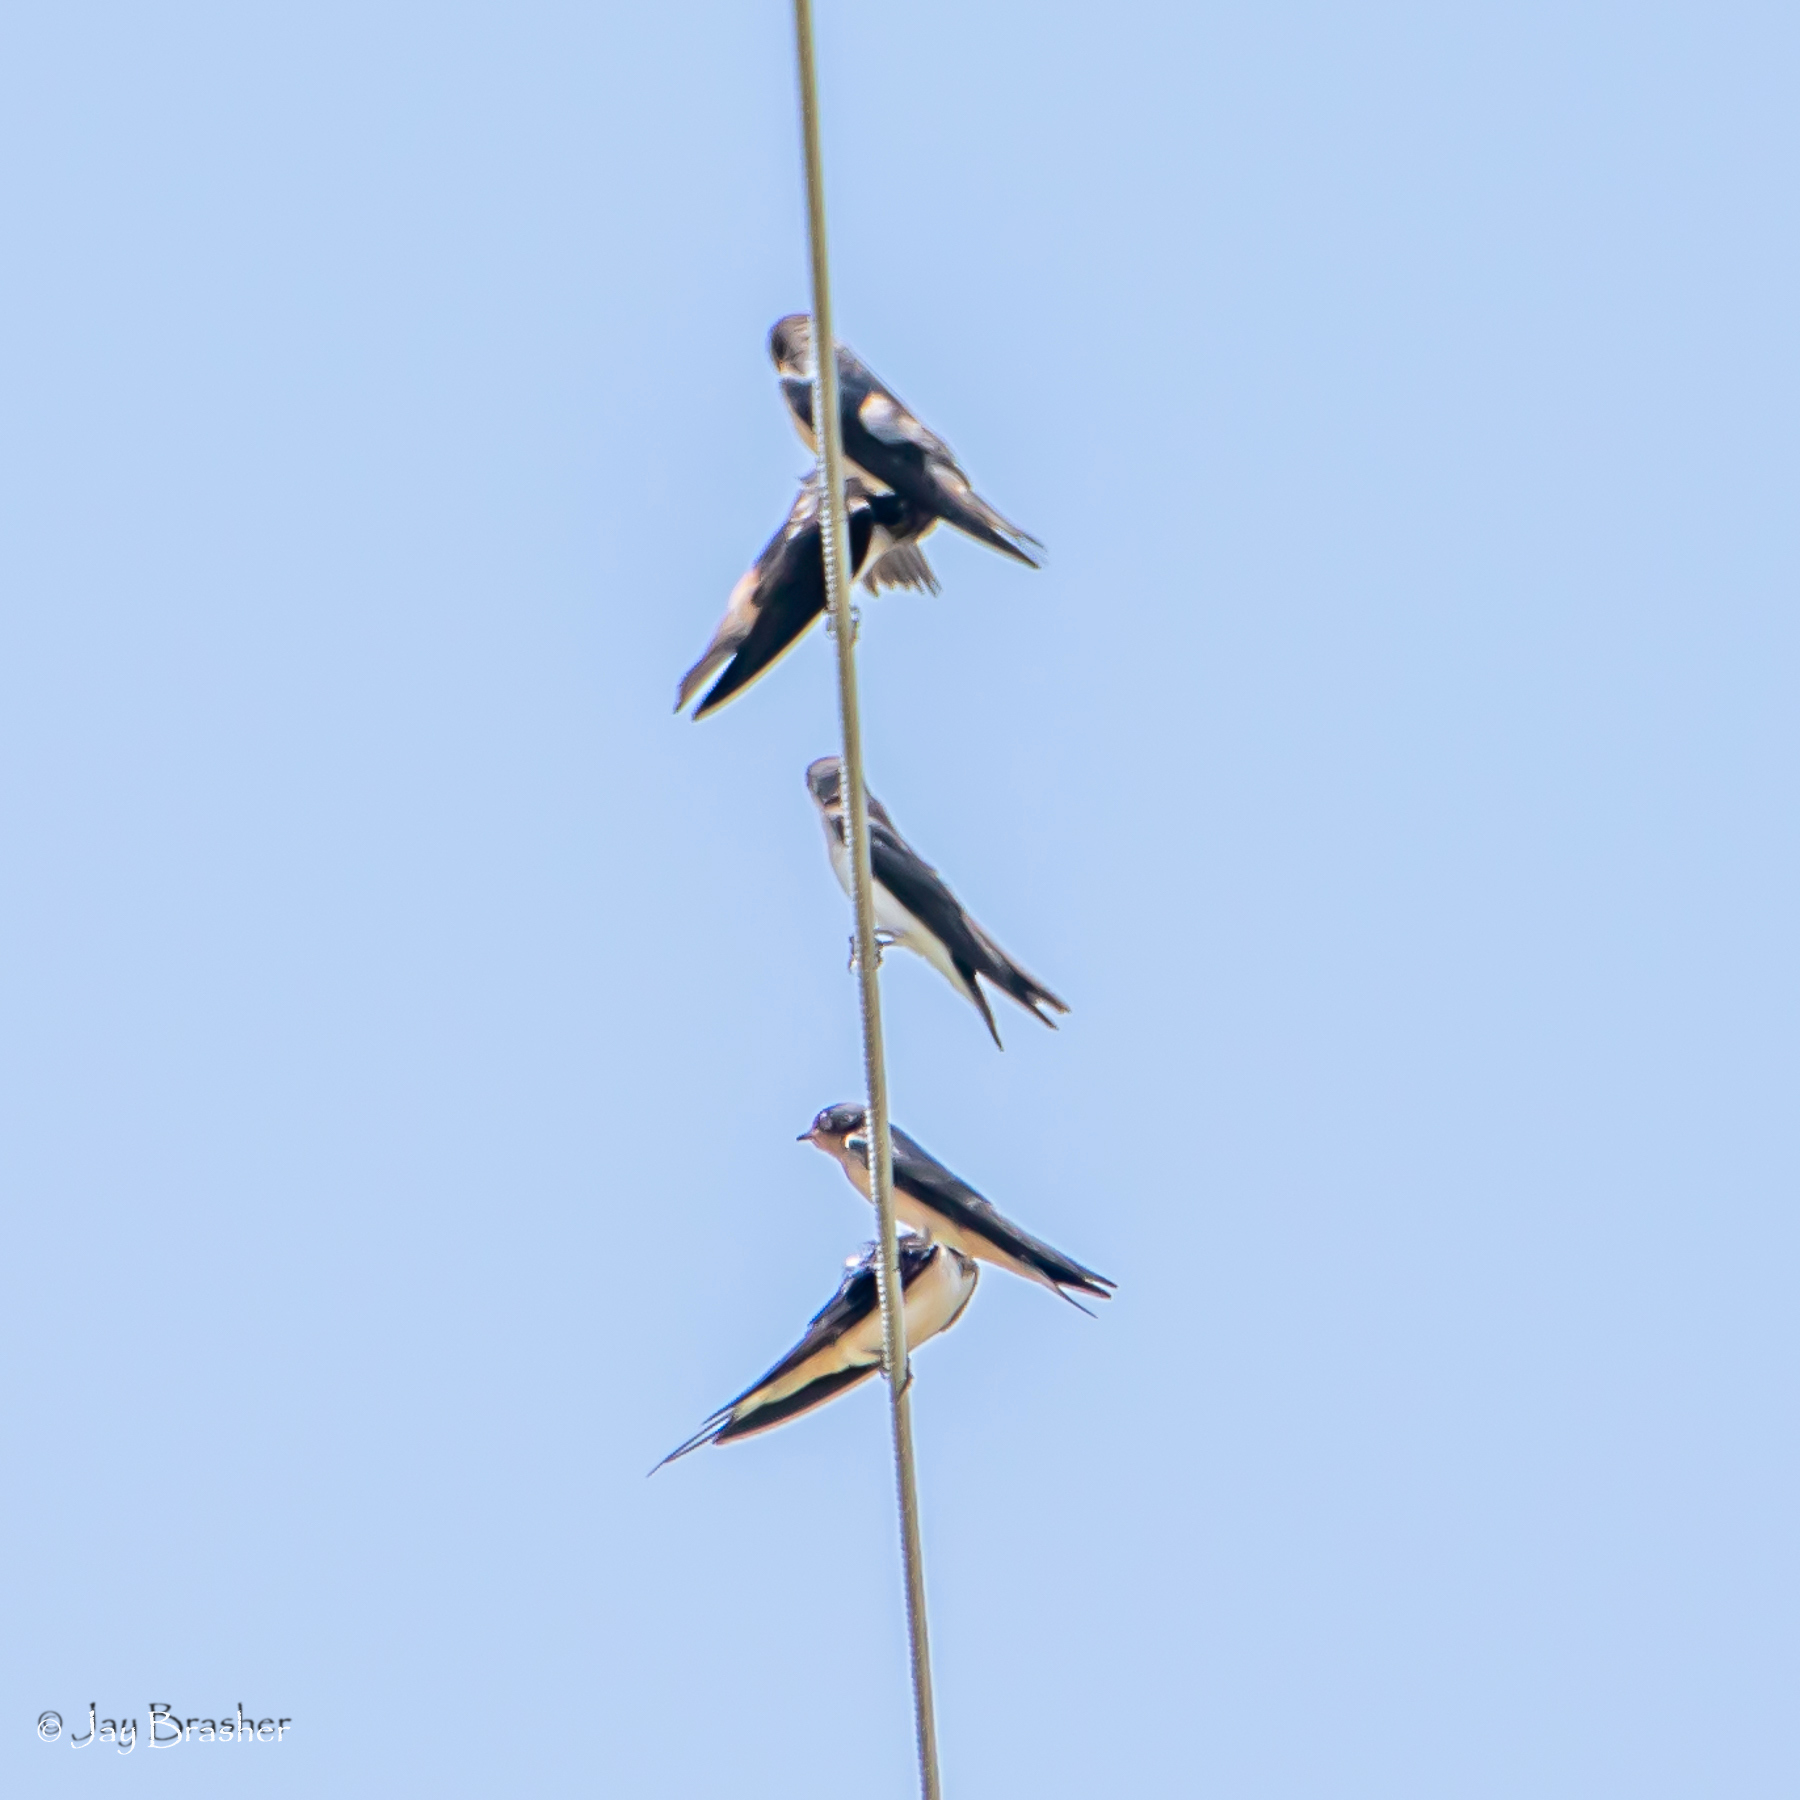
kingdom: Animalia
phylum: Chordata
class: Aves
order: Passeriformes
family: Hirundinidae
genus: Hirundo
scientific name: Hirundo rustica
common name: Barn swallow
